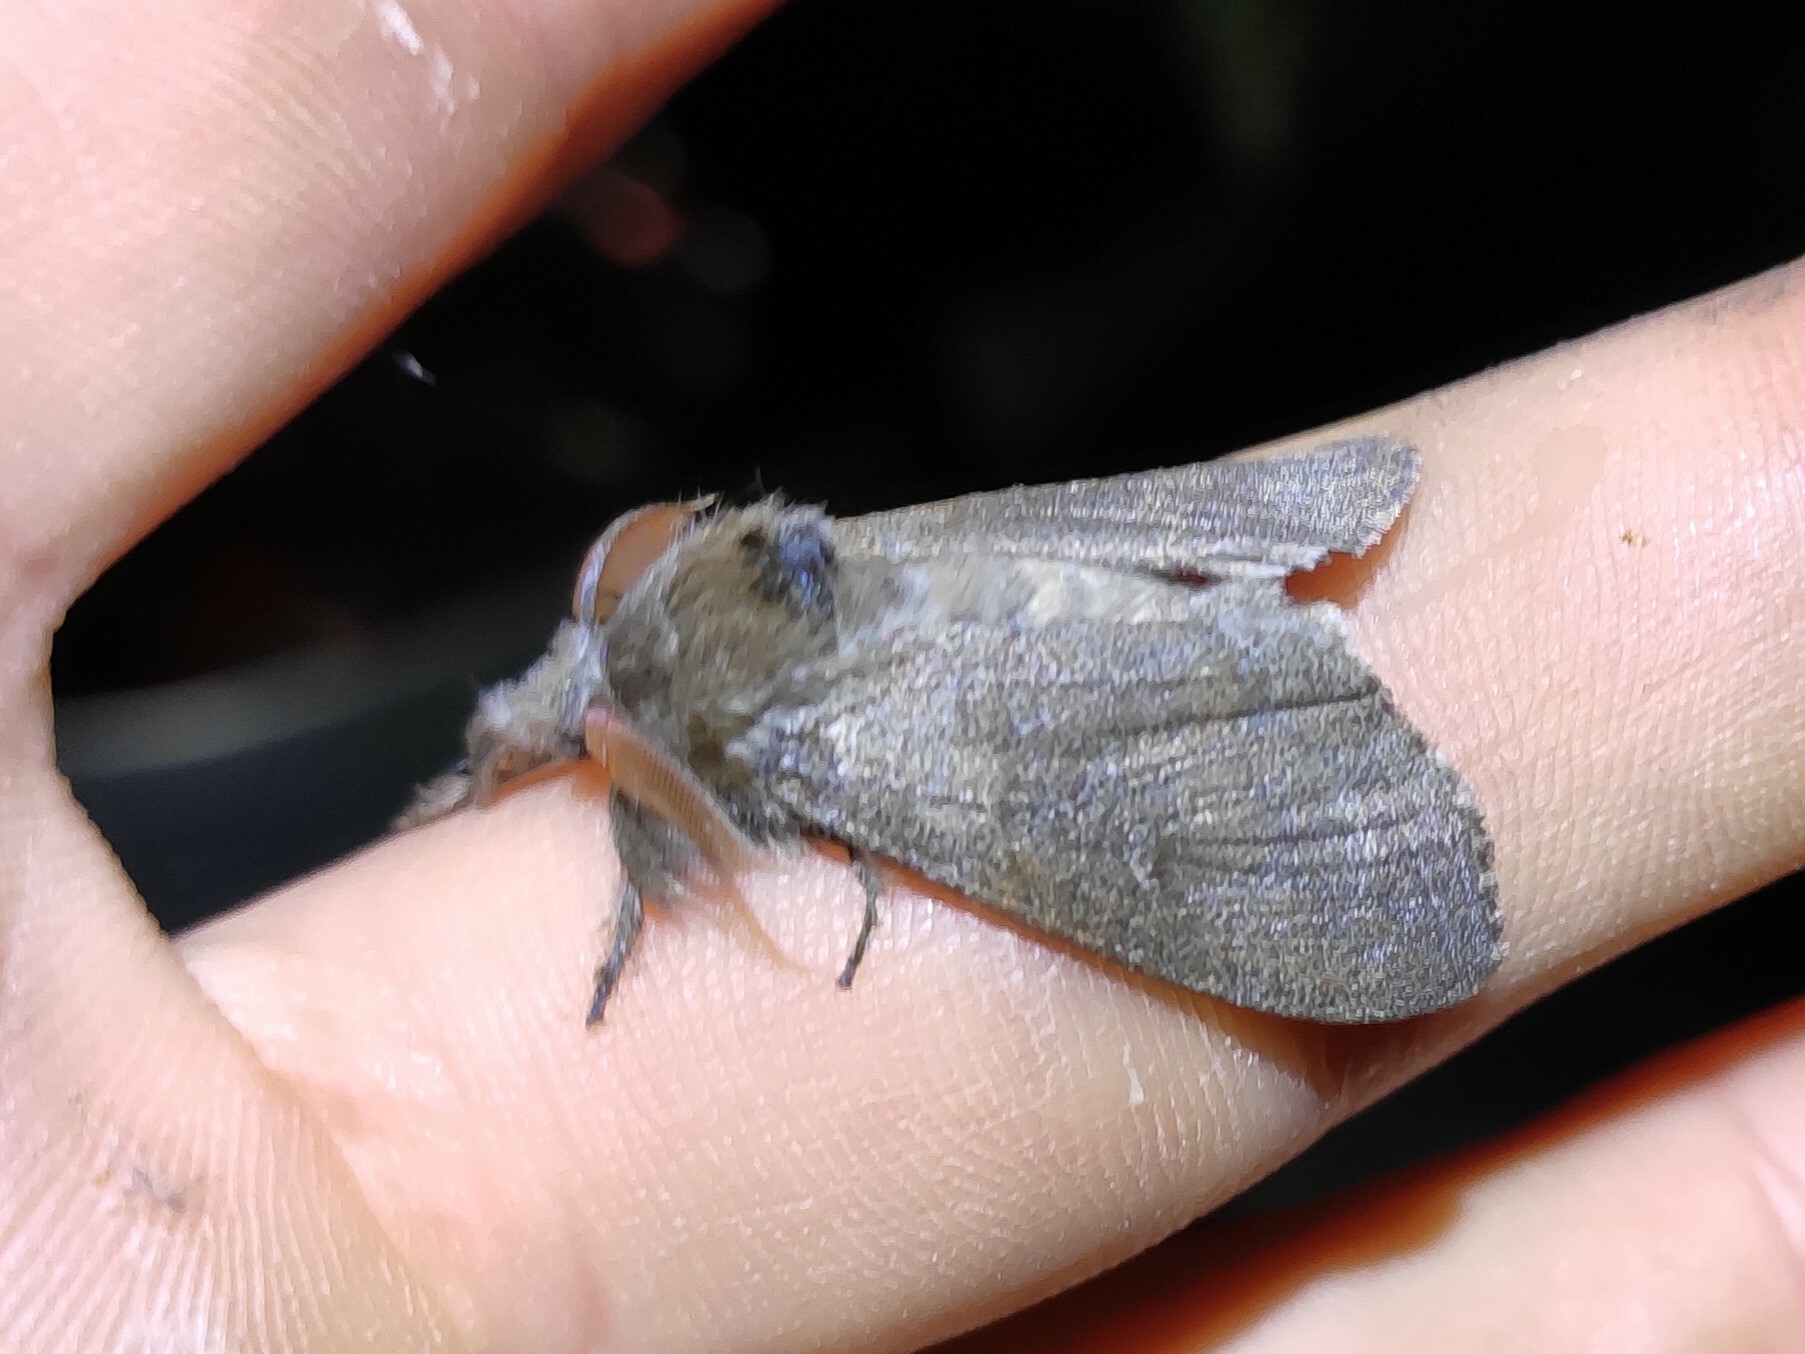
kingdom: Animalia
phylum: Arthropoda
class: Insecta
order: Lepidoptera
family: Erebidae
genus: Calliteara
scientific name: Calliteara pudibunda
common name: Pale tussock
